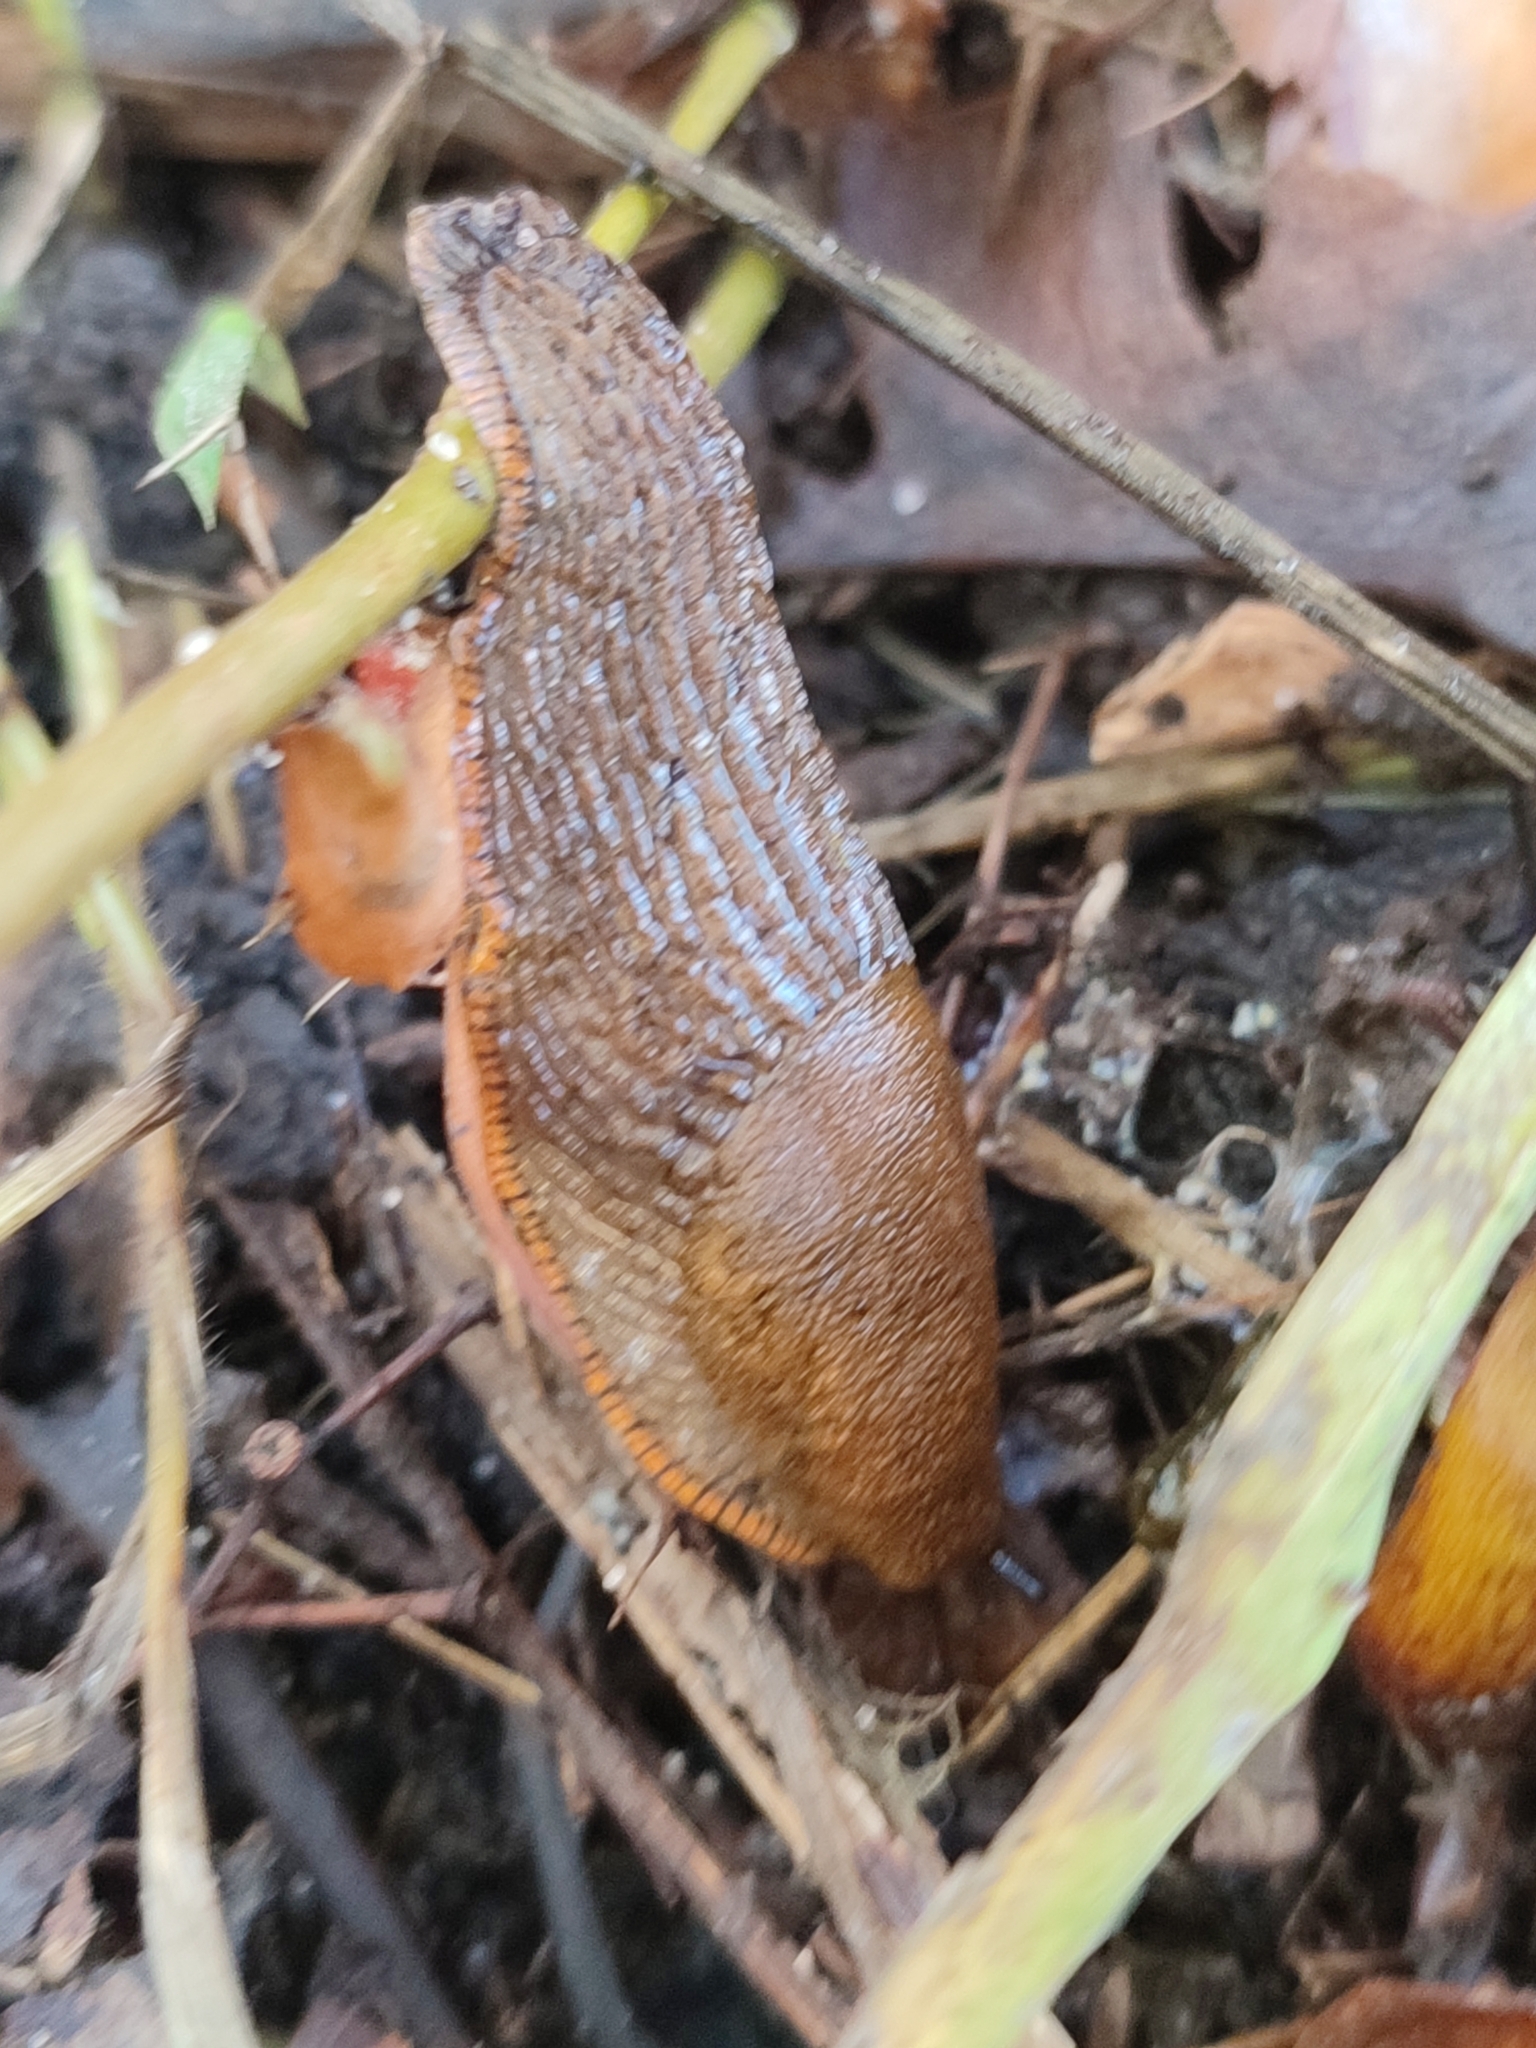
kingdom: Animalia
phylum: Mollusca
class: Gastropoda
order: Stylommatophora
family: Arionidae
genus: Arion
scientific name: Arion vulgaris
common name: Lusitanian slug
